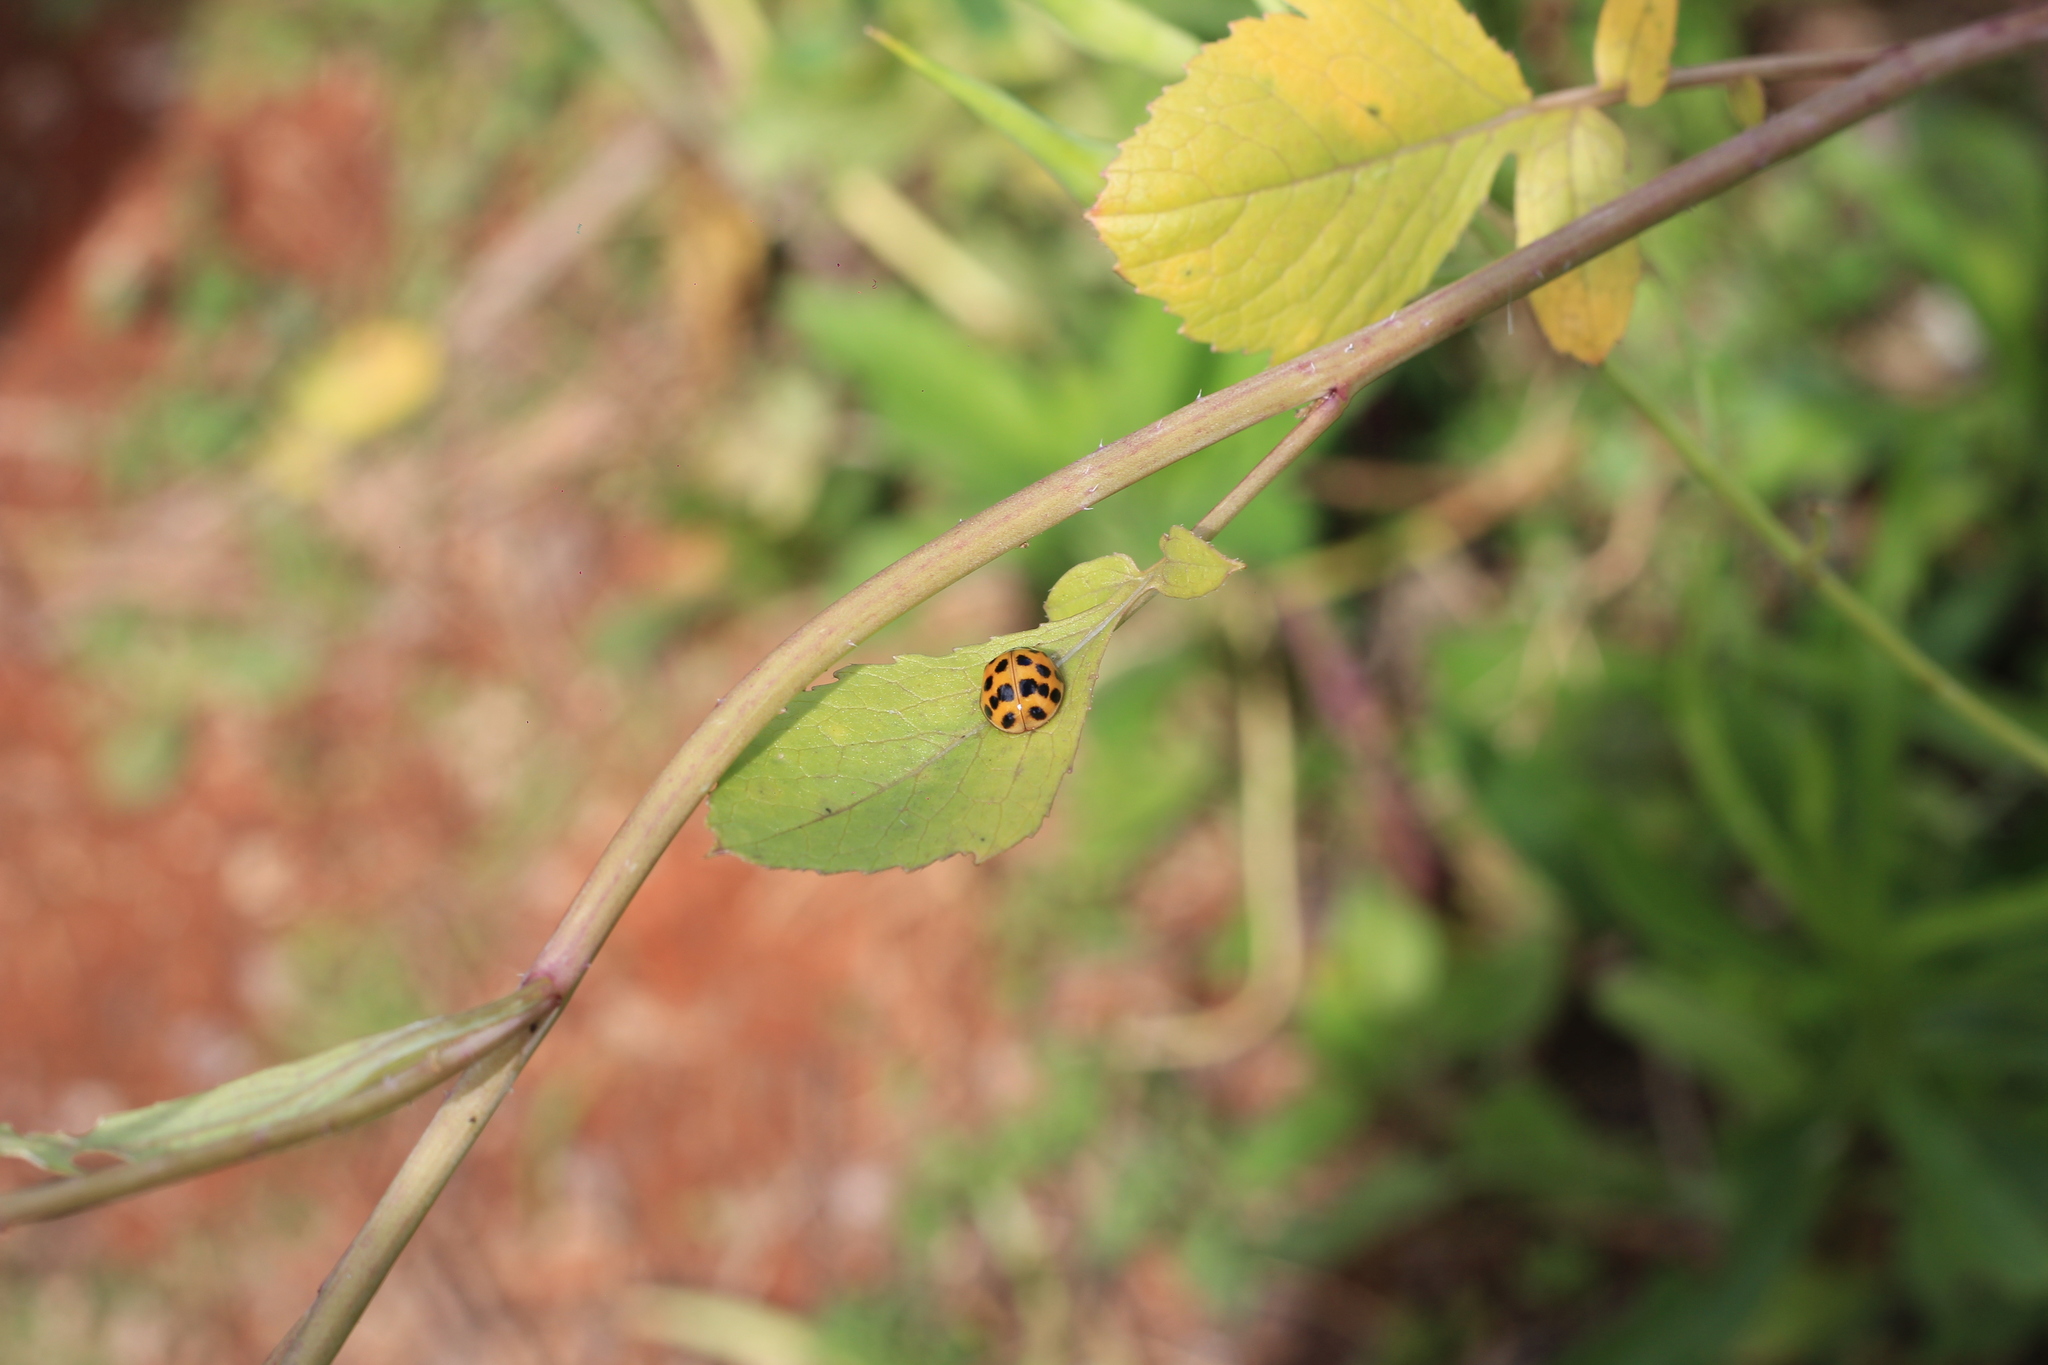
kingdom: Animalia
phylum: Arthropoda
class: Insecta
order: Coleoptera
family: Coccinellidae
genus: Harmonia
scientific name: Harmonia axyridis
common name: Harlequin ladybird
